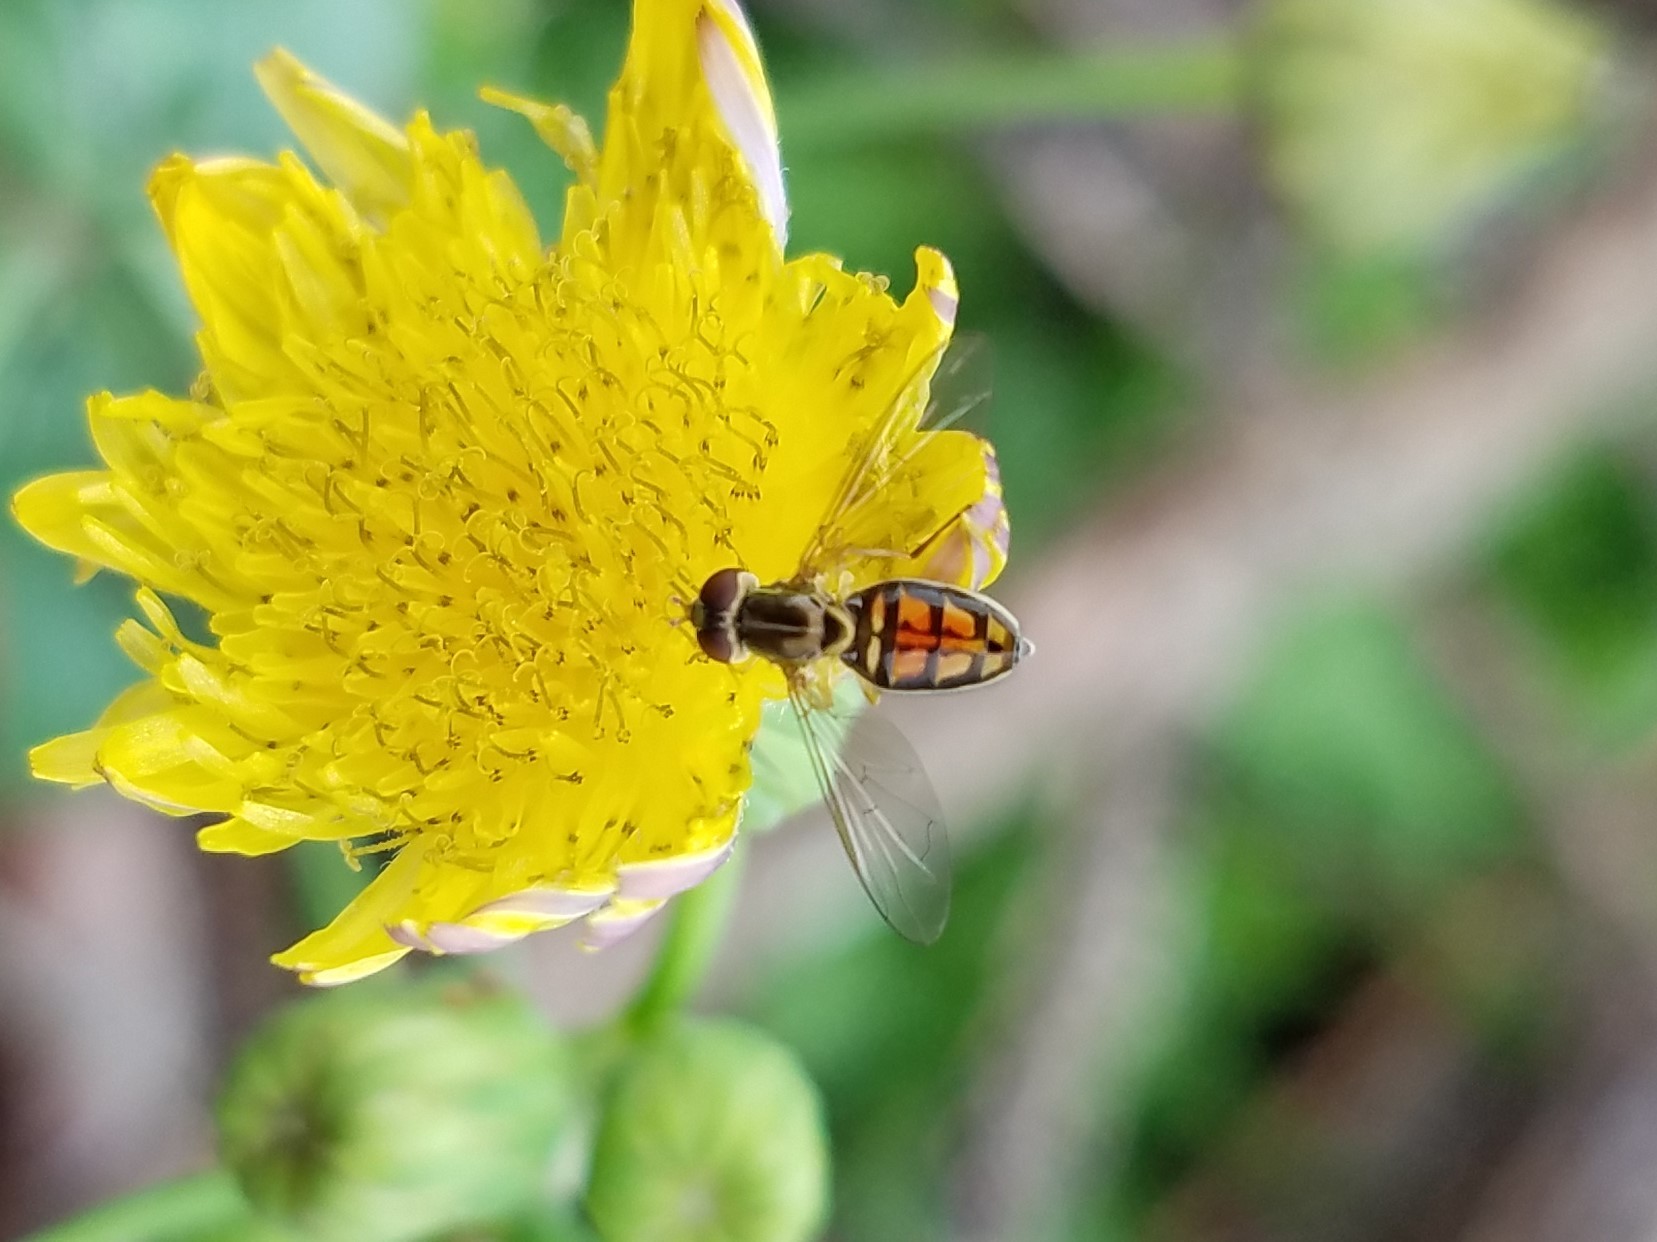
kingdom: Animalia
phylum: Arthropoda
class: Insecta
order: Diptera
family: Syrphidae
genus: Toxomerus
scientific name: Toxomerus marginatus
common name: Syrphid fly
